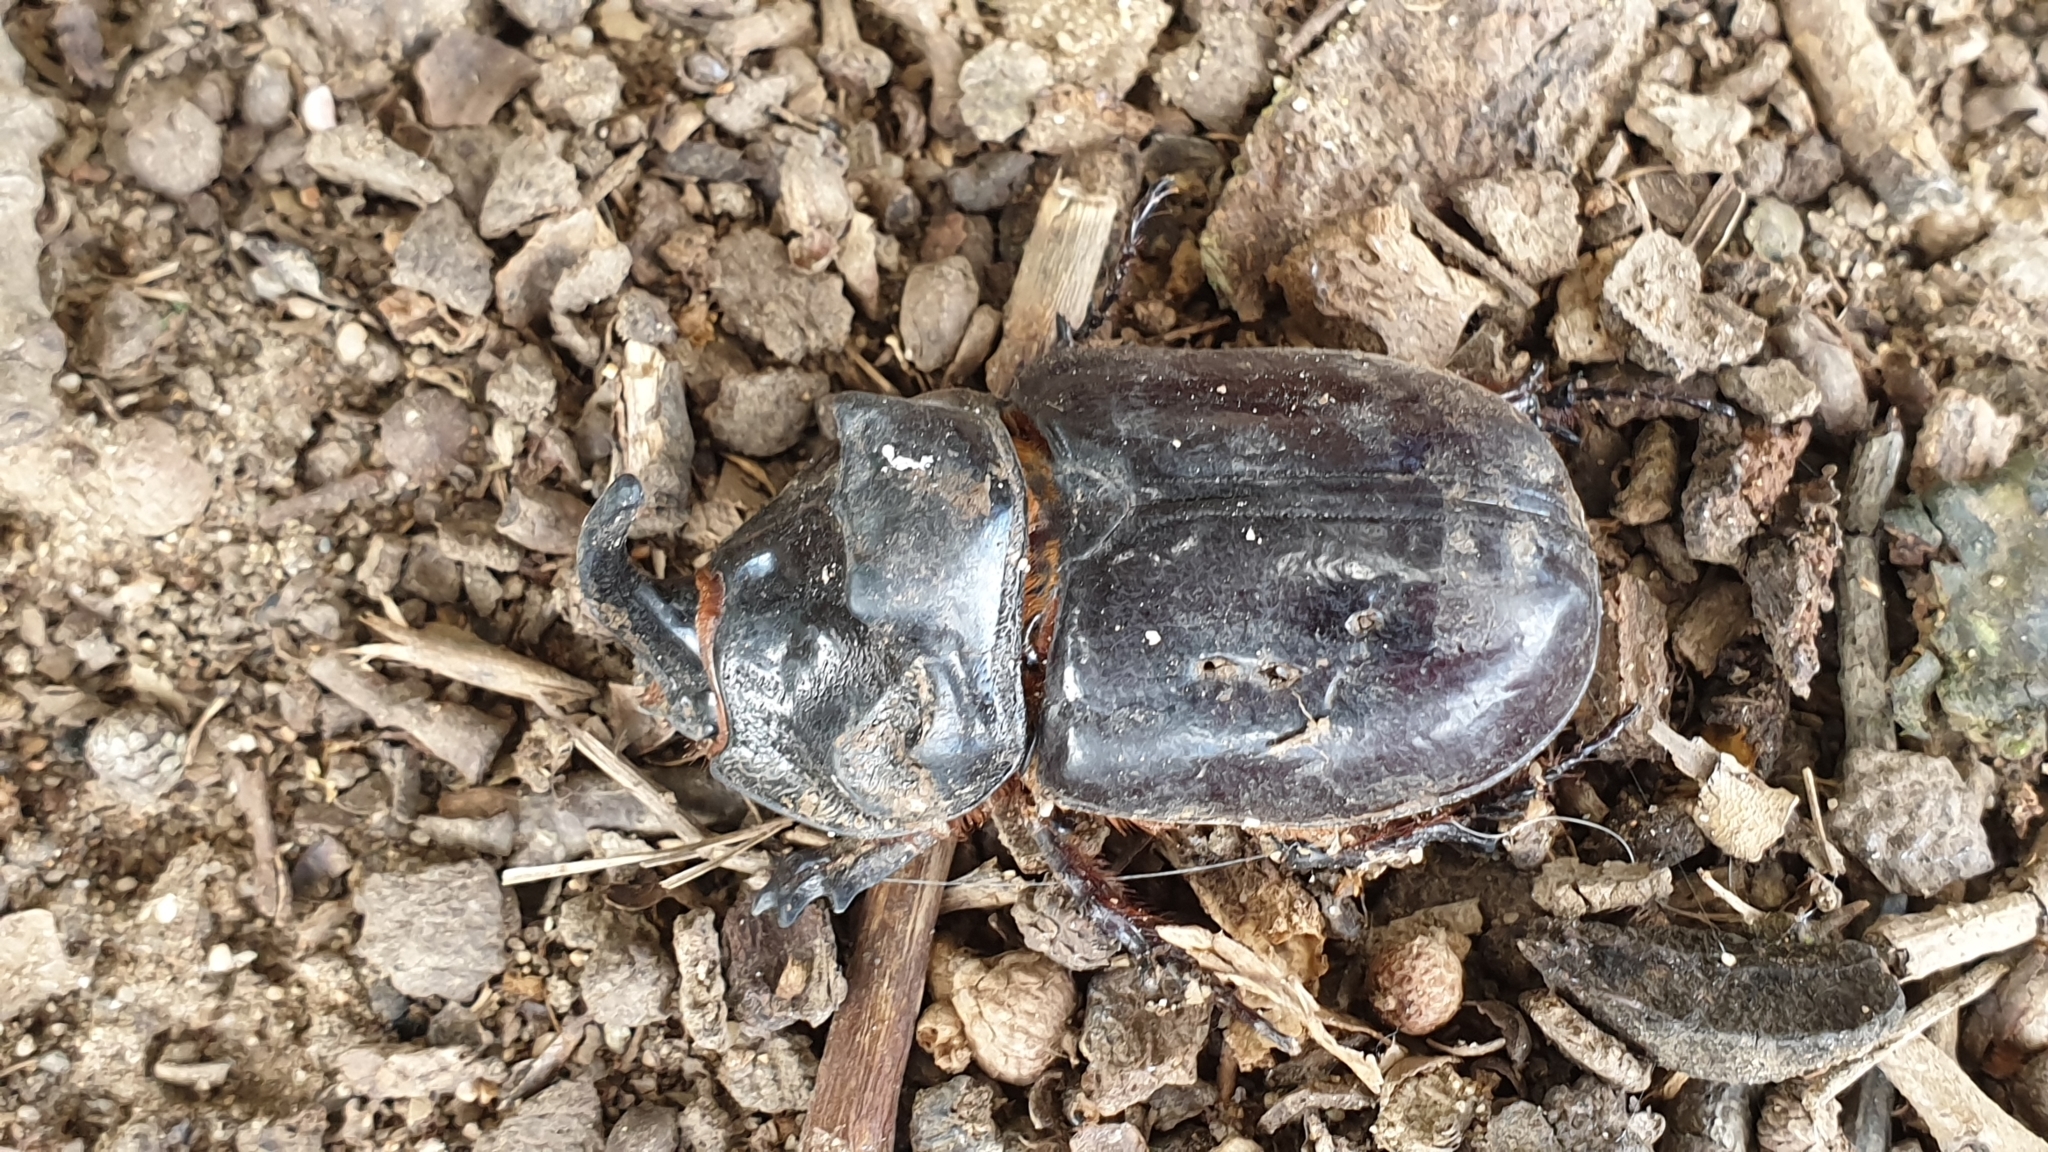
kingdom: Animalia
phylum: Arthropoda
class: Insecta
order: Coleoptera
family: Scarabaeidae
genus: Oryctes
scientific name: Oryctes nasicornis
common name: European rhinoceros beetle
